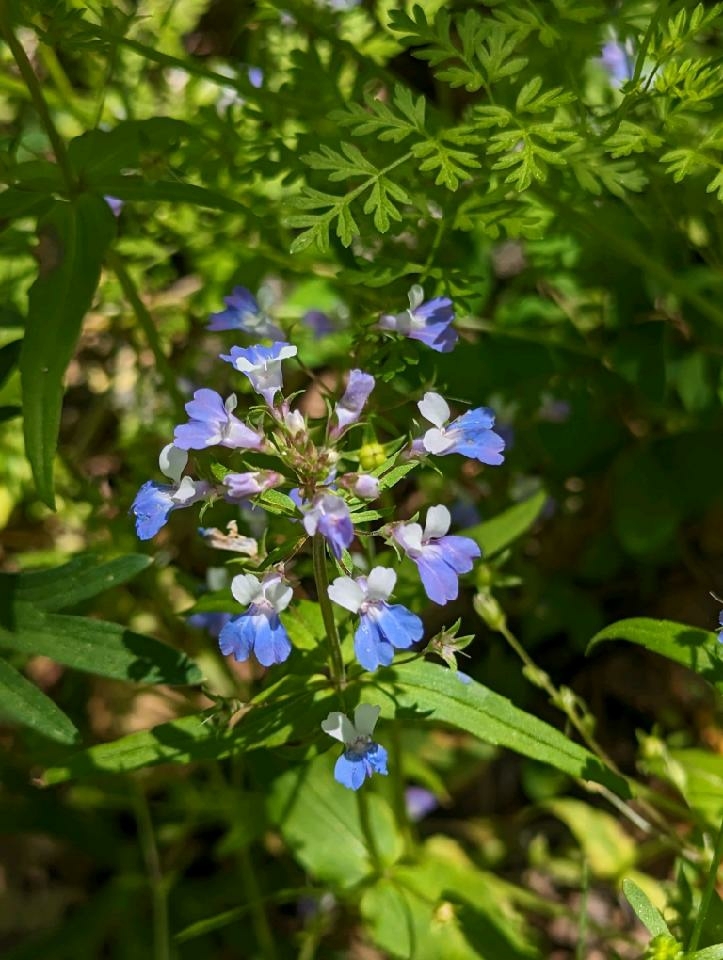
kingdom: Plantae
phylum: Tracheophyta
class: Magnoliopsida
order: Lamiales
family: Plantaginaceae
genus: Collinsia
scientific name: Collinsia verna
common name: Broad-leaved collinsia
